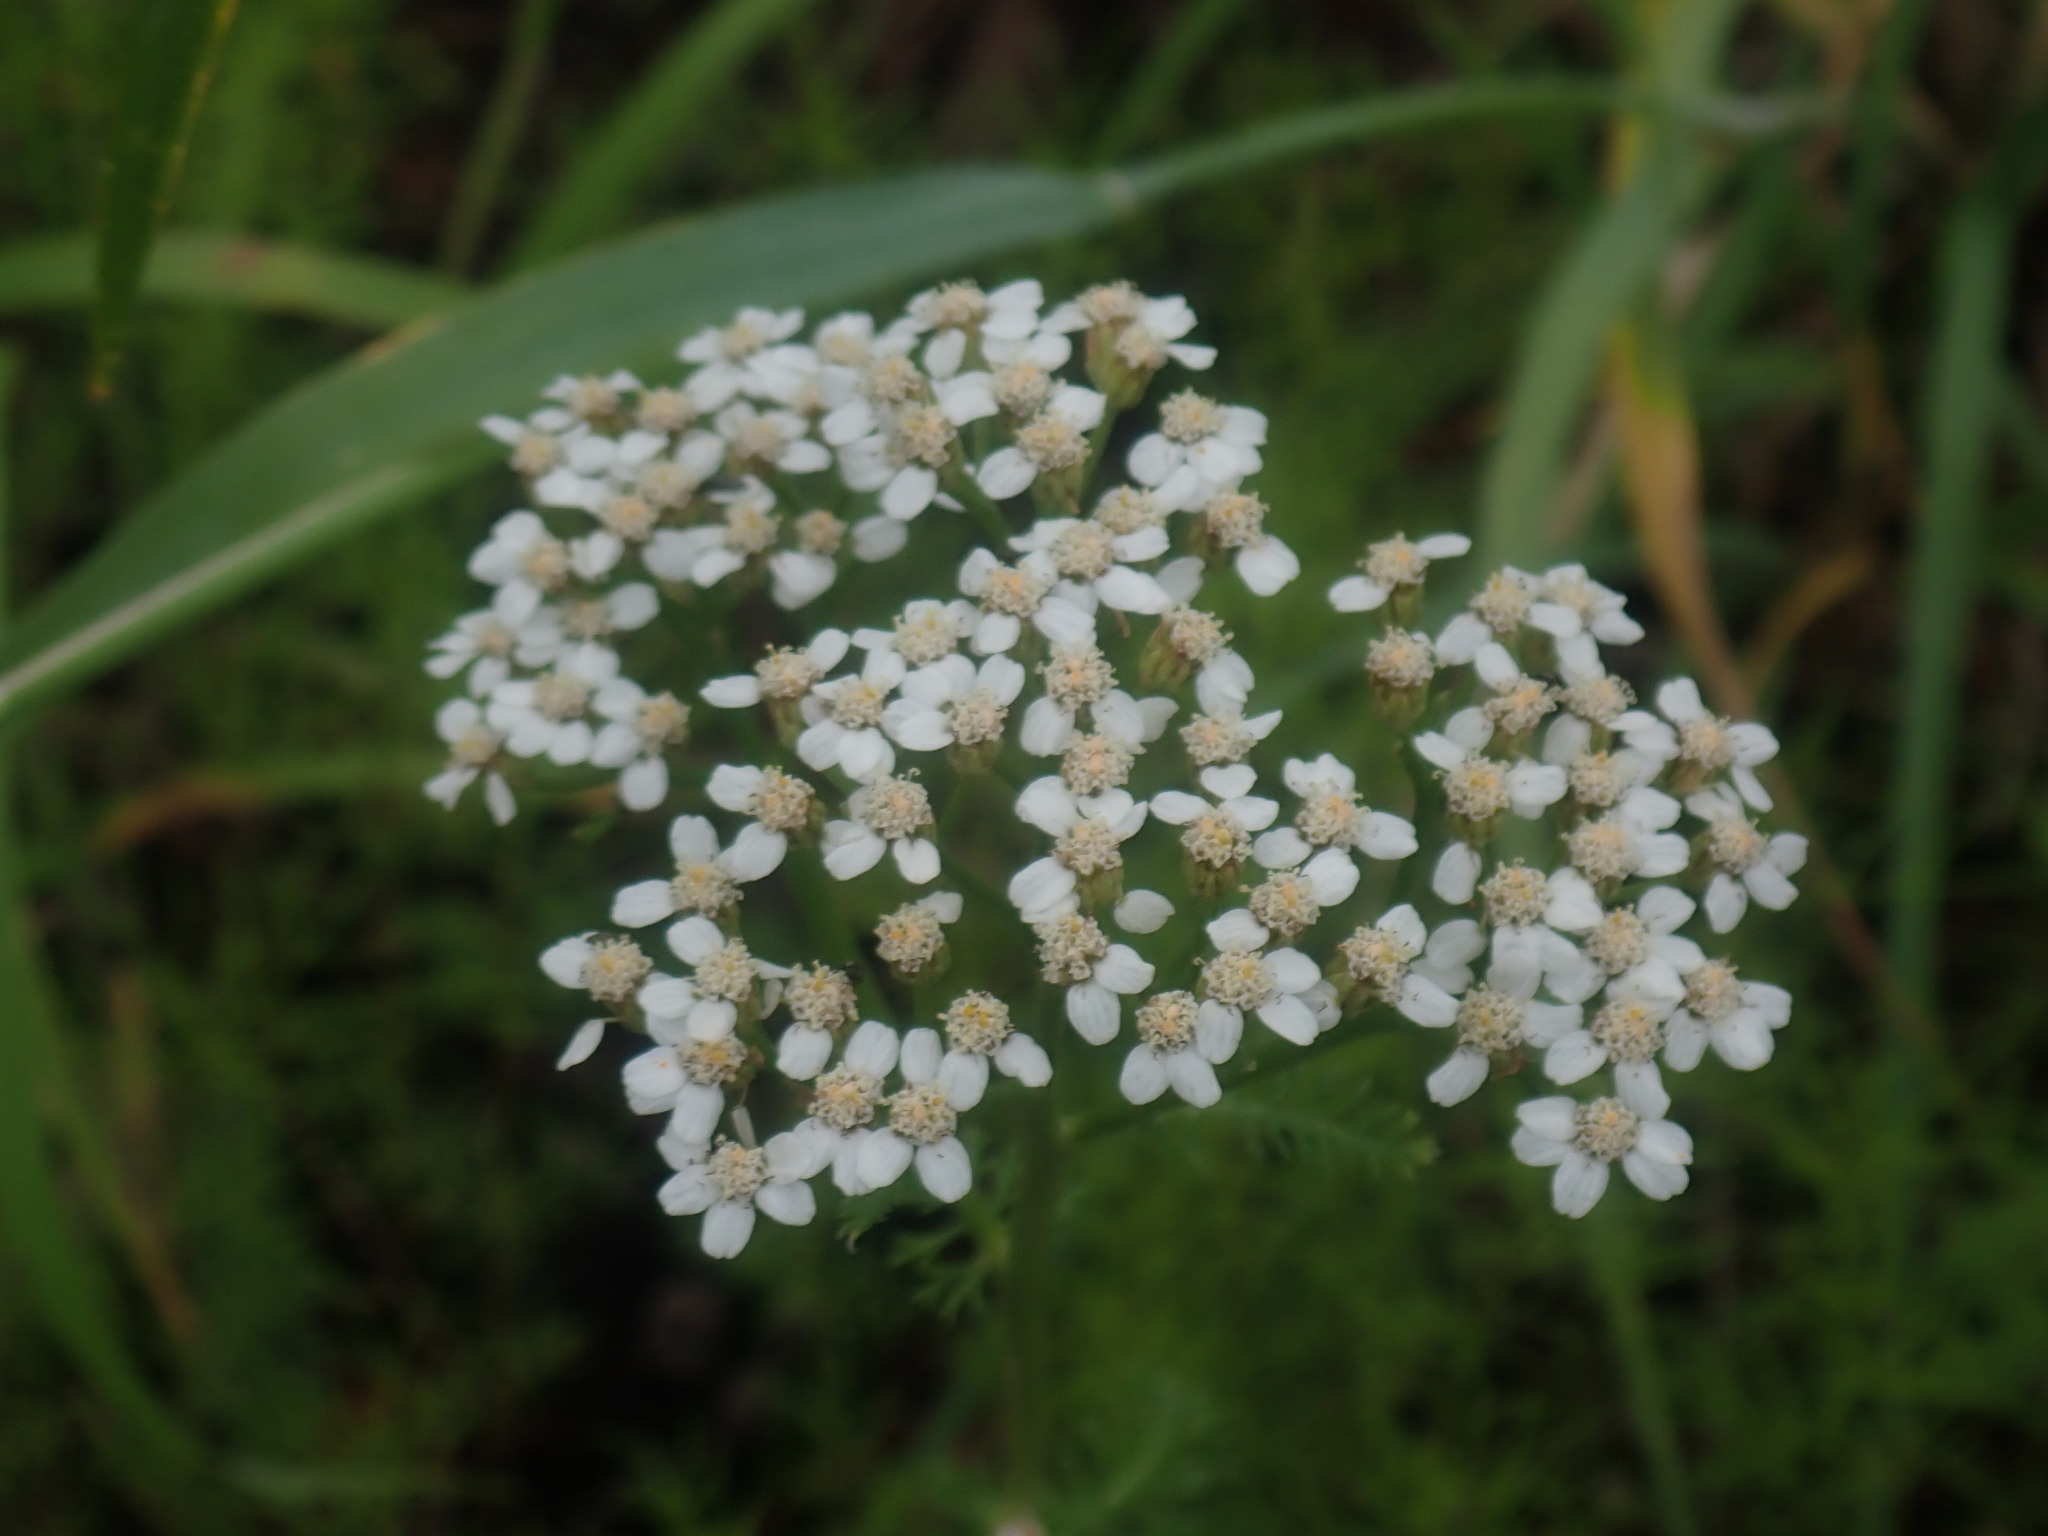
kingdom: Plantae
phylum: Tracheophyta
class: Magnoliopsida
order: Asterales
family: Asteraceae
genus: Achillea
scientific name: Achillea millefolium
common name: Yarrow
